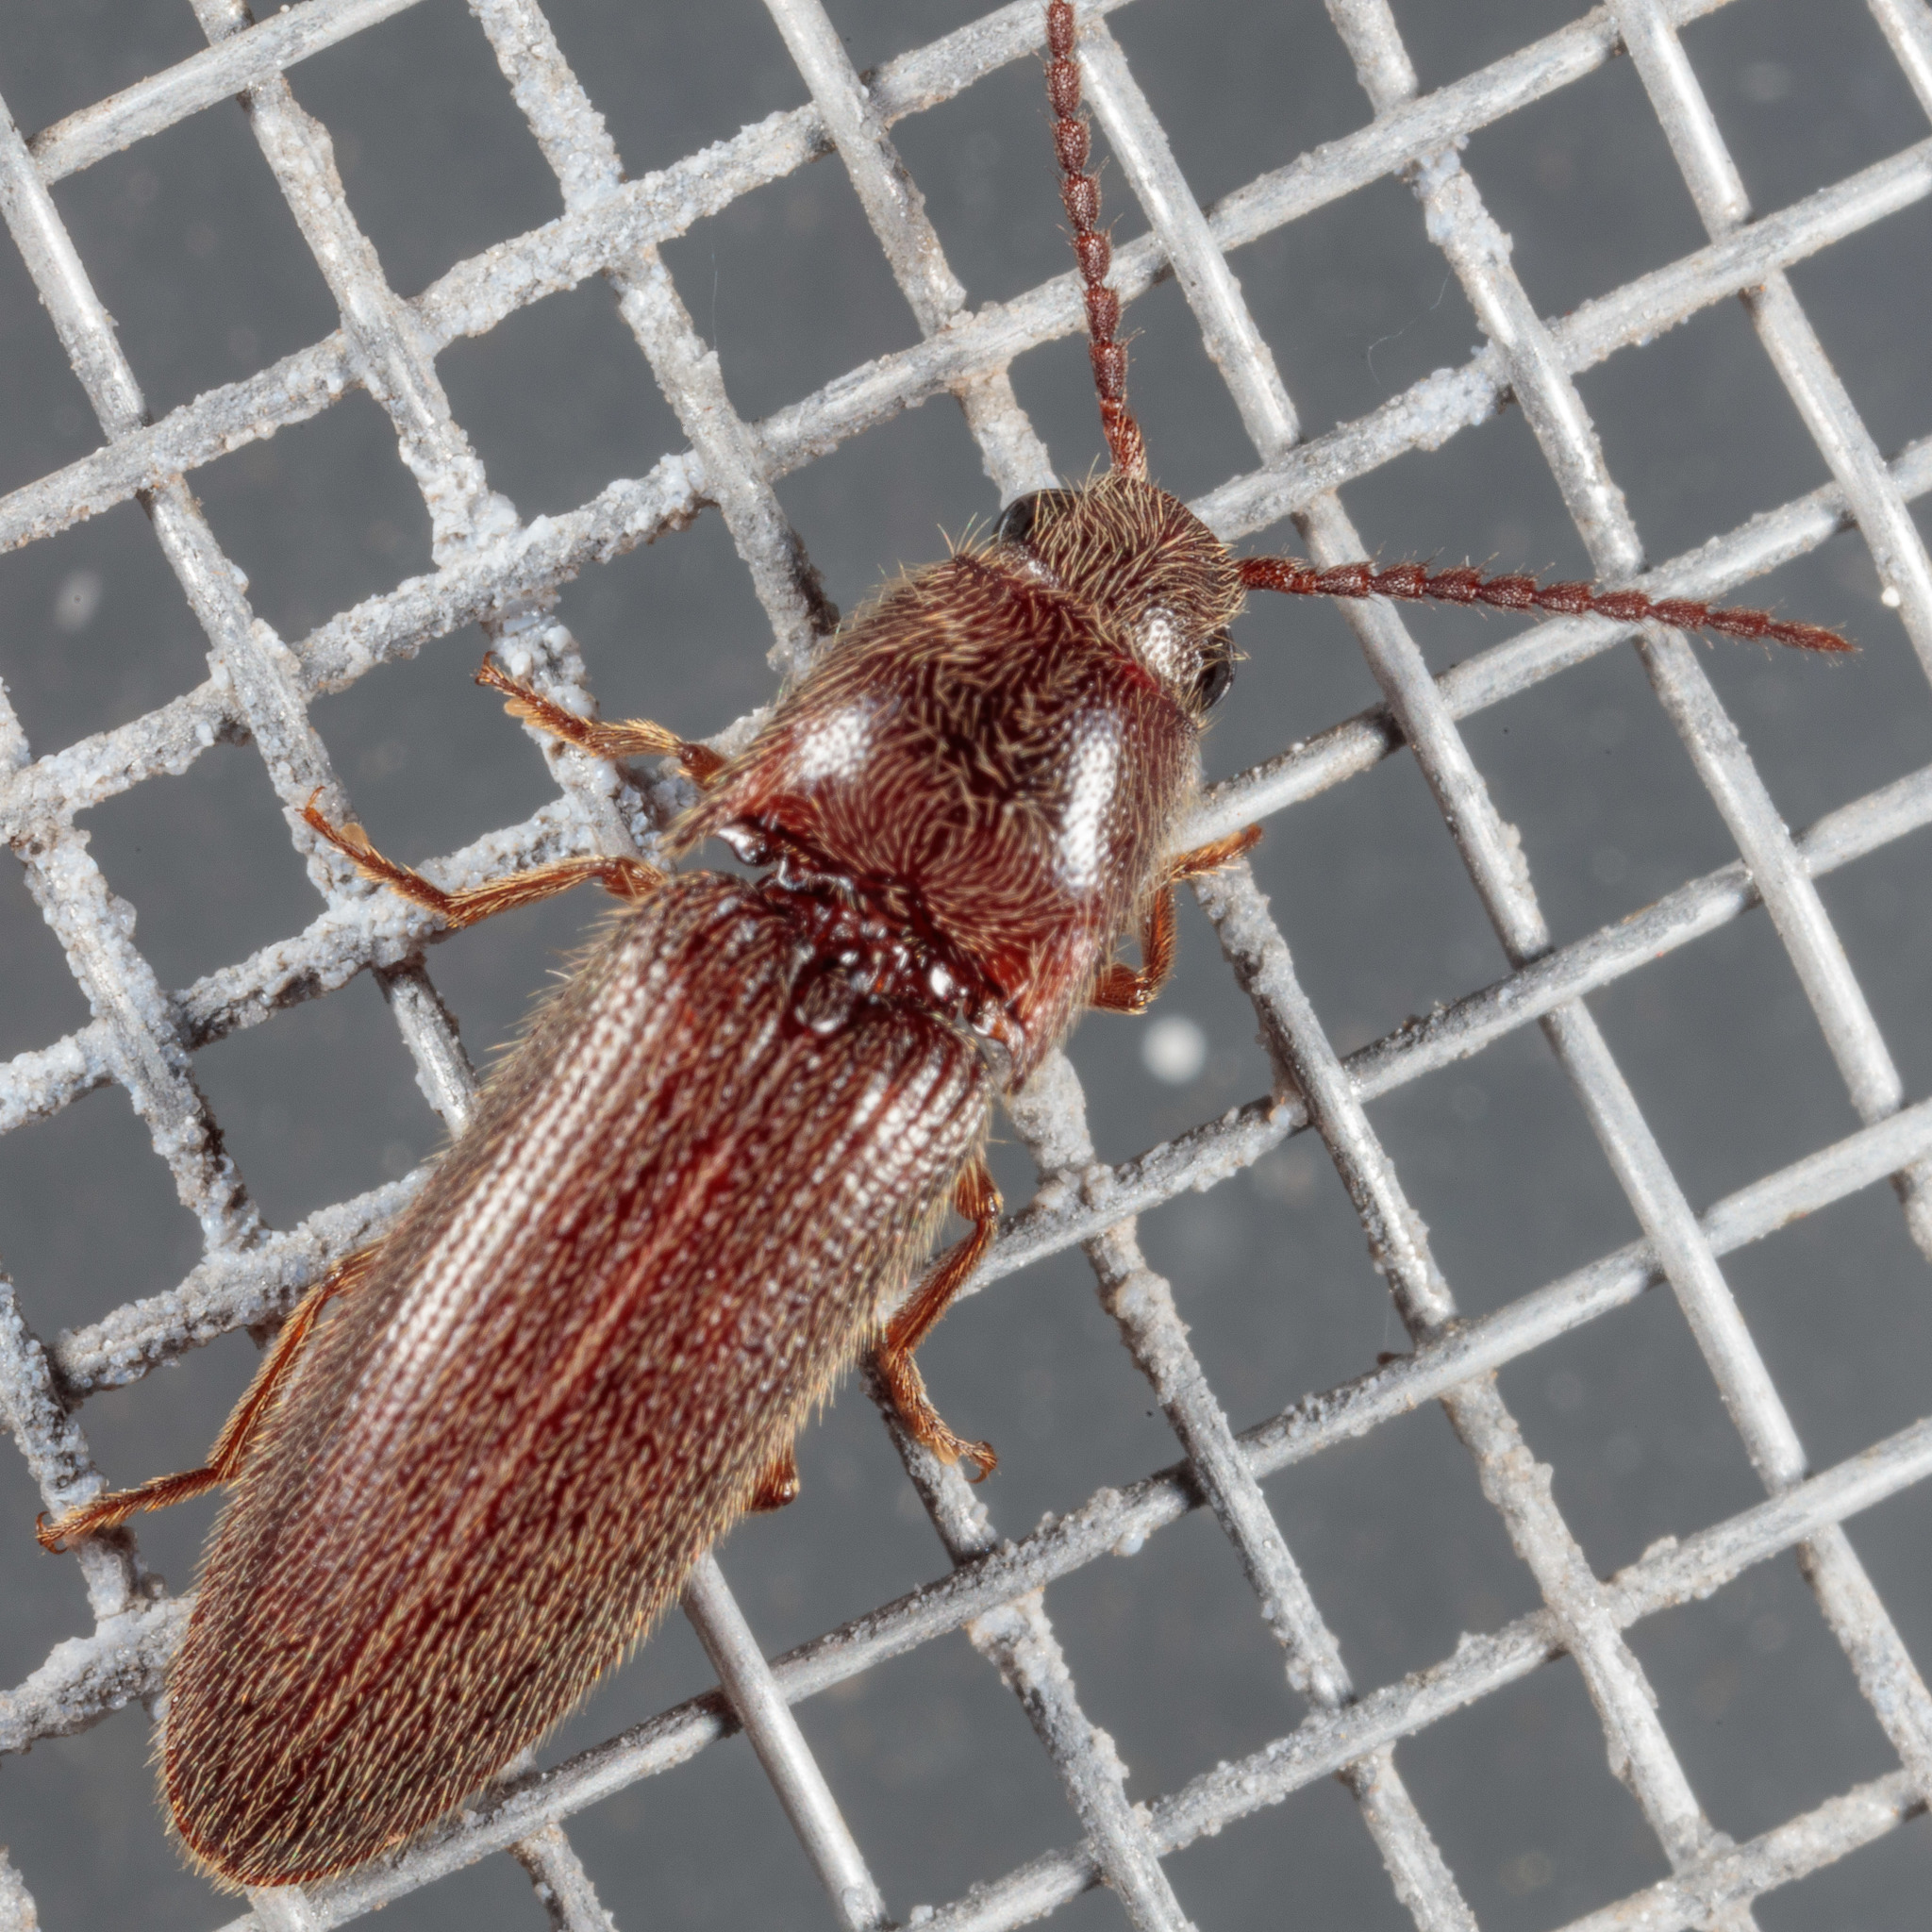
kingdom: Animalia
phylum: Arthropoda
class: Insecta
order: Coleoptera
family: Elateridae
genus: Dipropus
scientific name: Dipropus
